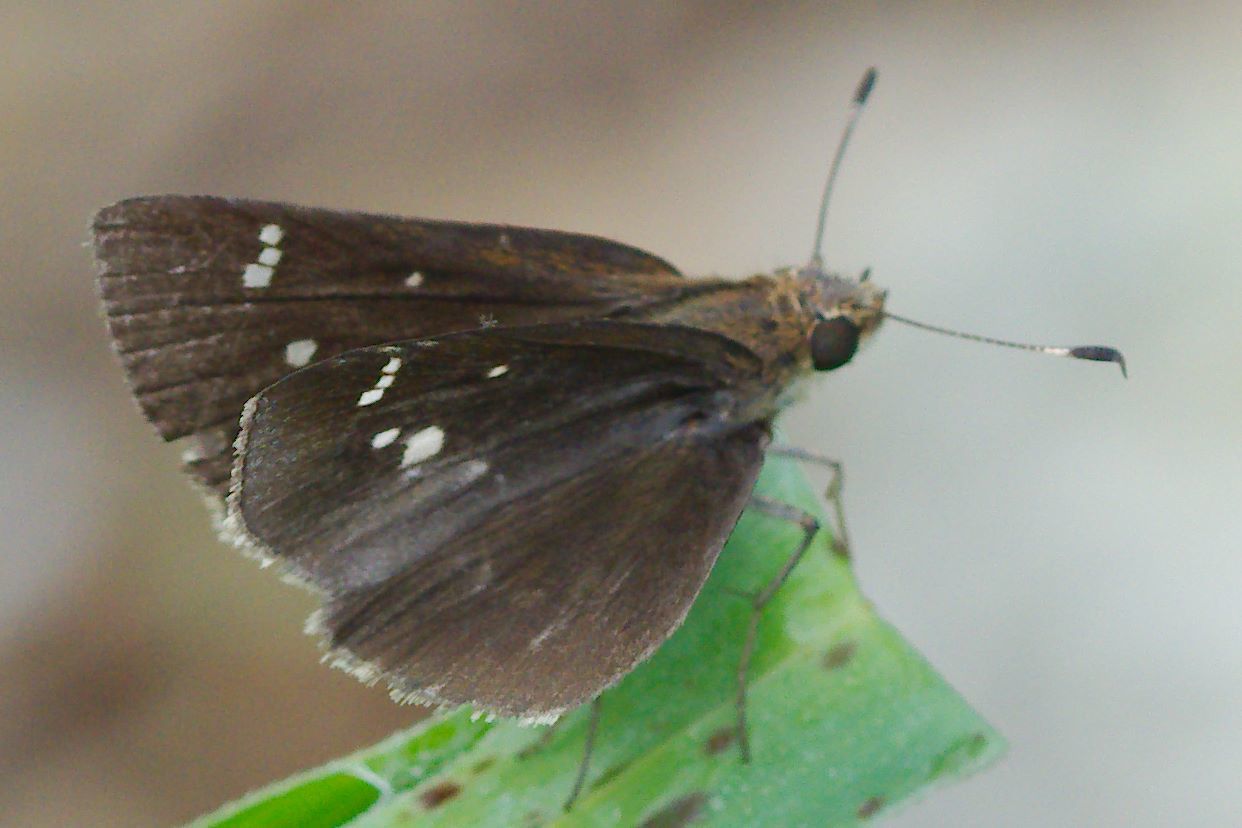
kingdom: Animalia
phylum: Arthropoda
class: Insecta
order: Lepidoptera
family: Hesperiidae
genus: Lerema
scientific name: Lerema accius
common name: Clouded skipper
